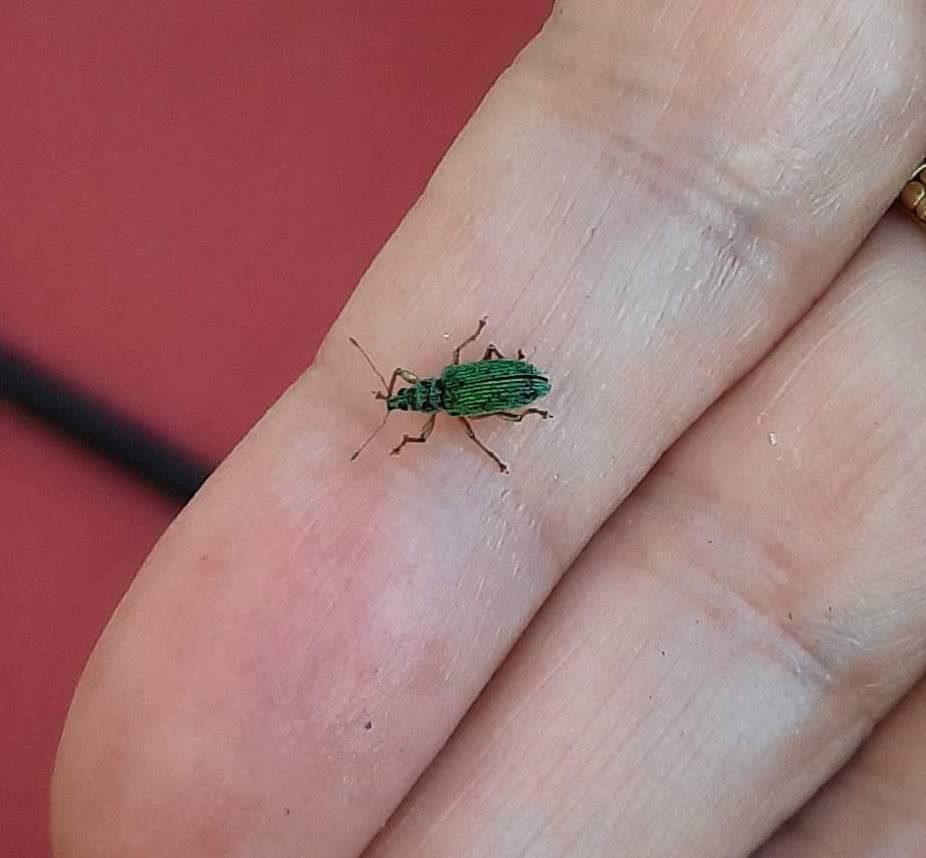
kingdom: Animalia
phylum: Arthropoda
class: Insecta
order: Coleoptera
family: Curculionidae
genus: Polydrusus
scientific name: Polydrusus formosus
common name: Weevil
